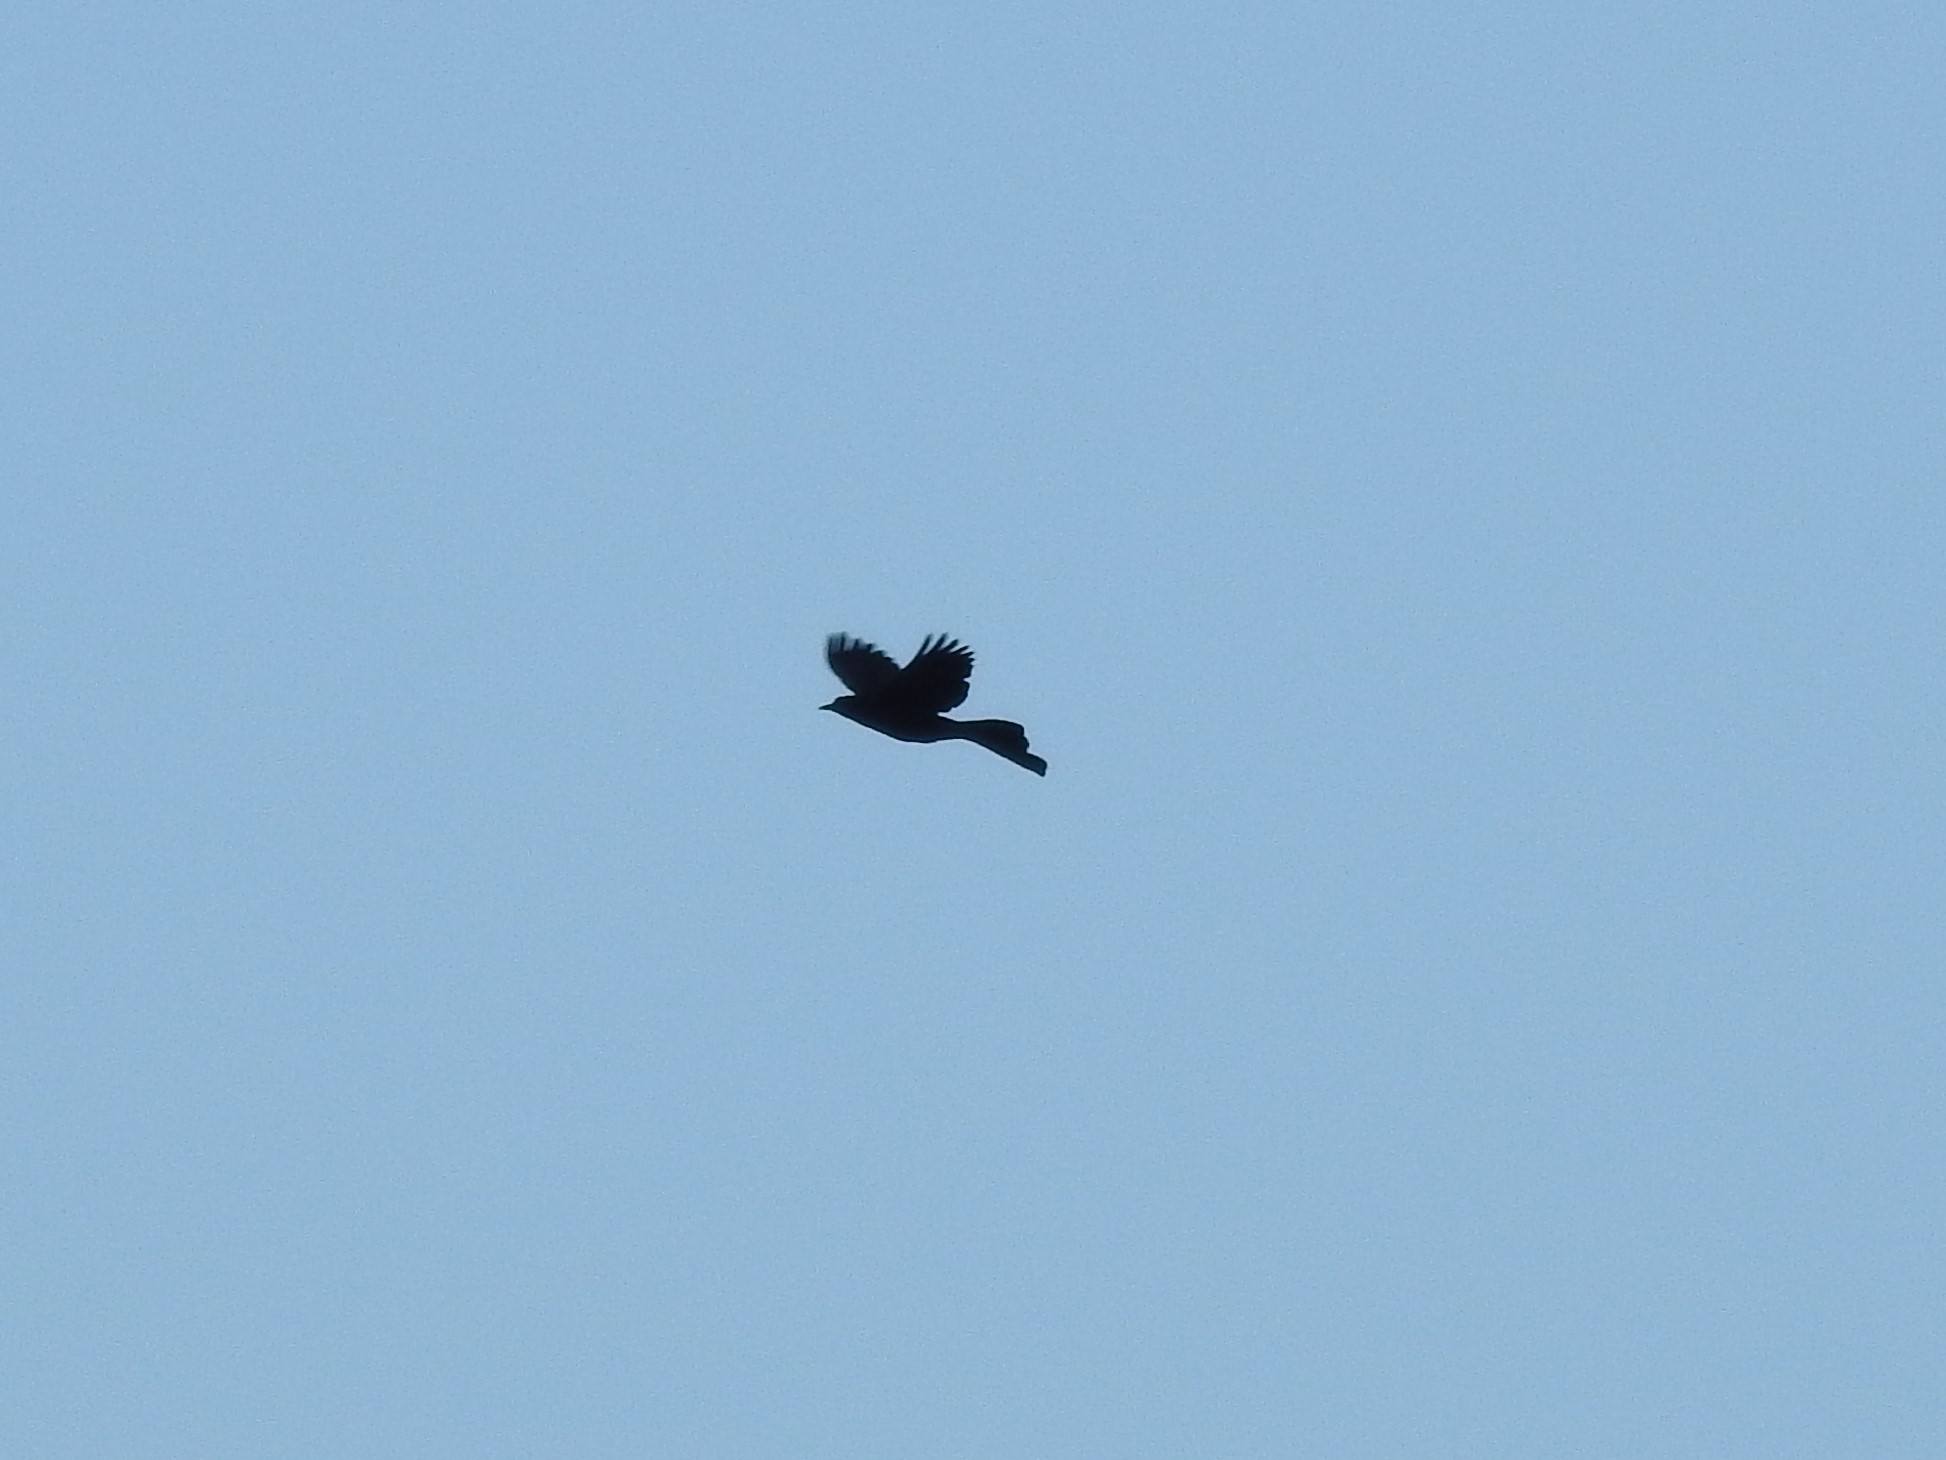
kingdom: Animalia
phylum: Chordata
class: Aves
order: Passeriformes
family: Icteridae
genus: Quiscalus
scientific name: Quiscalus nicaraguensis
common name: Nicaraguan grackle
